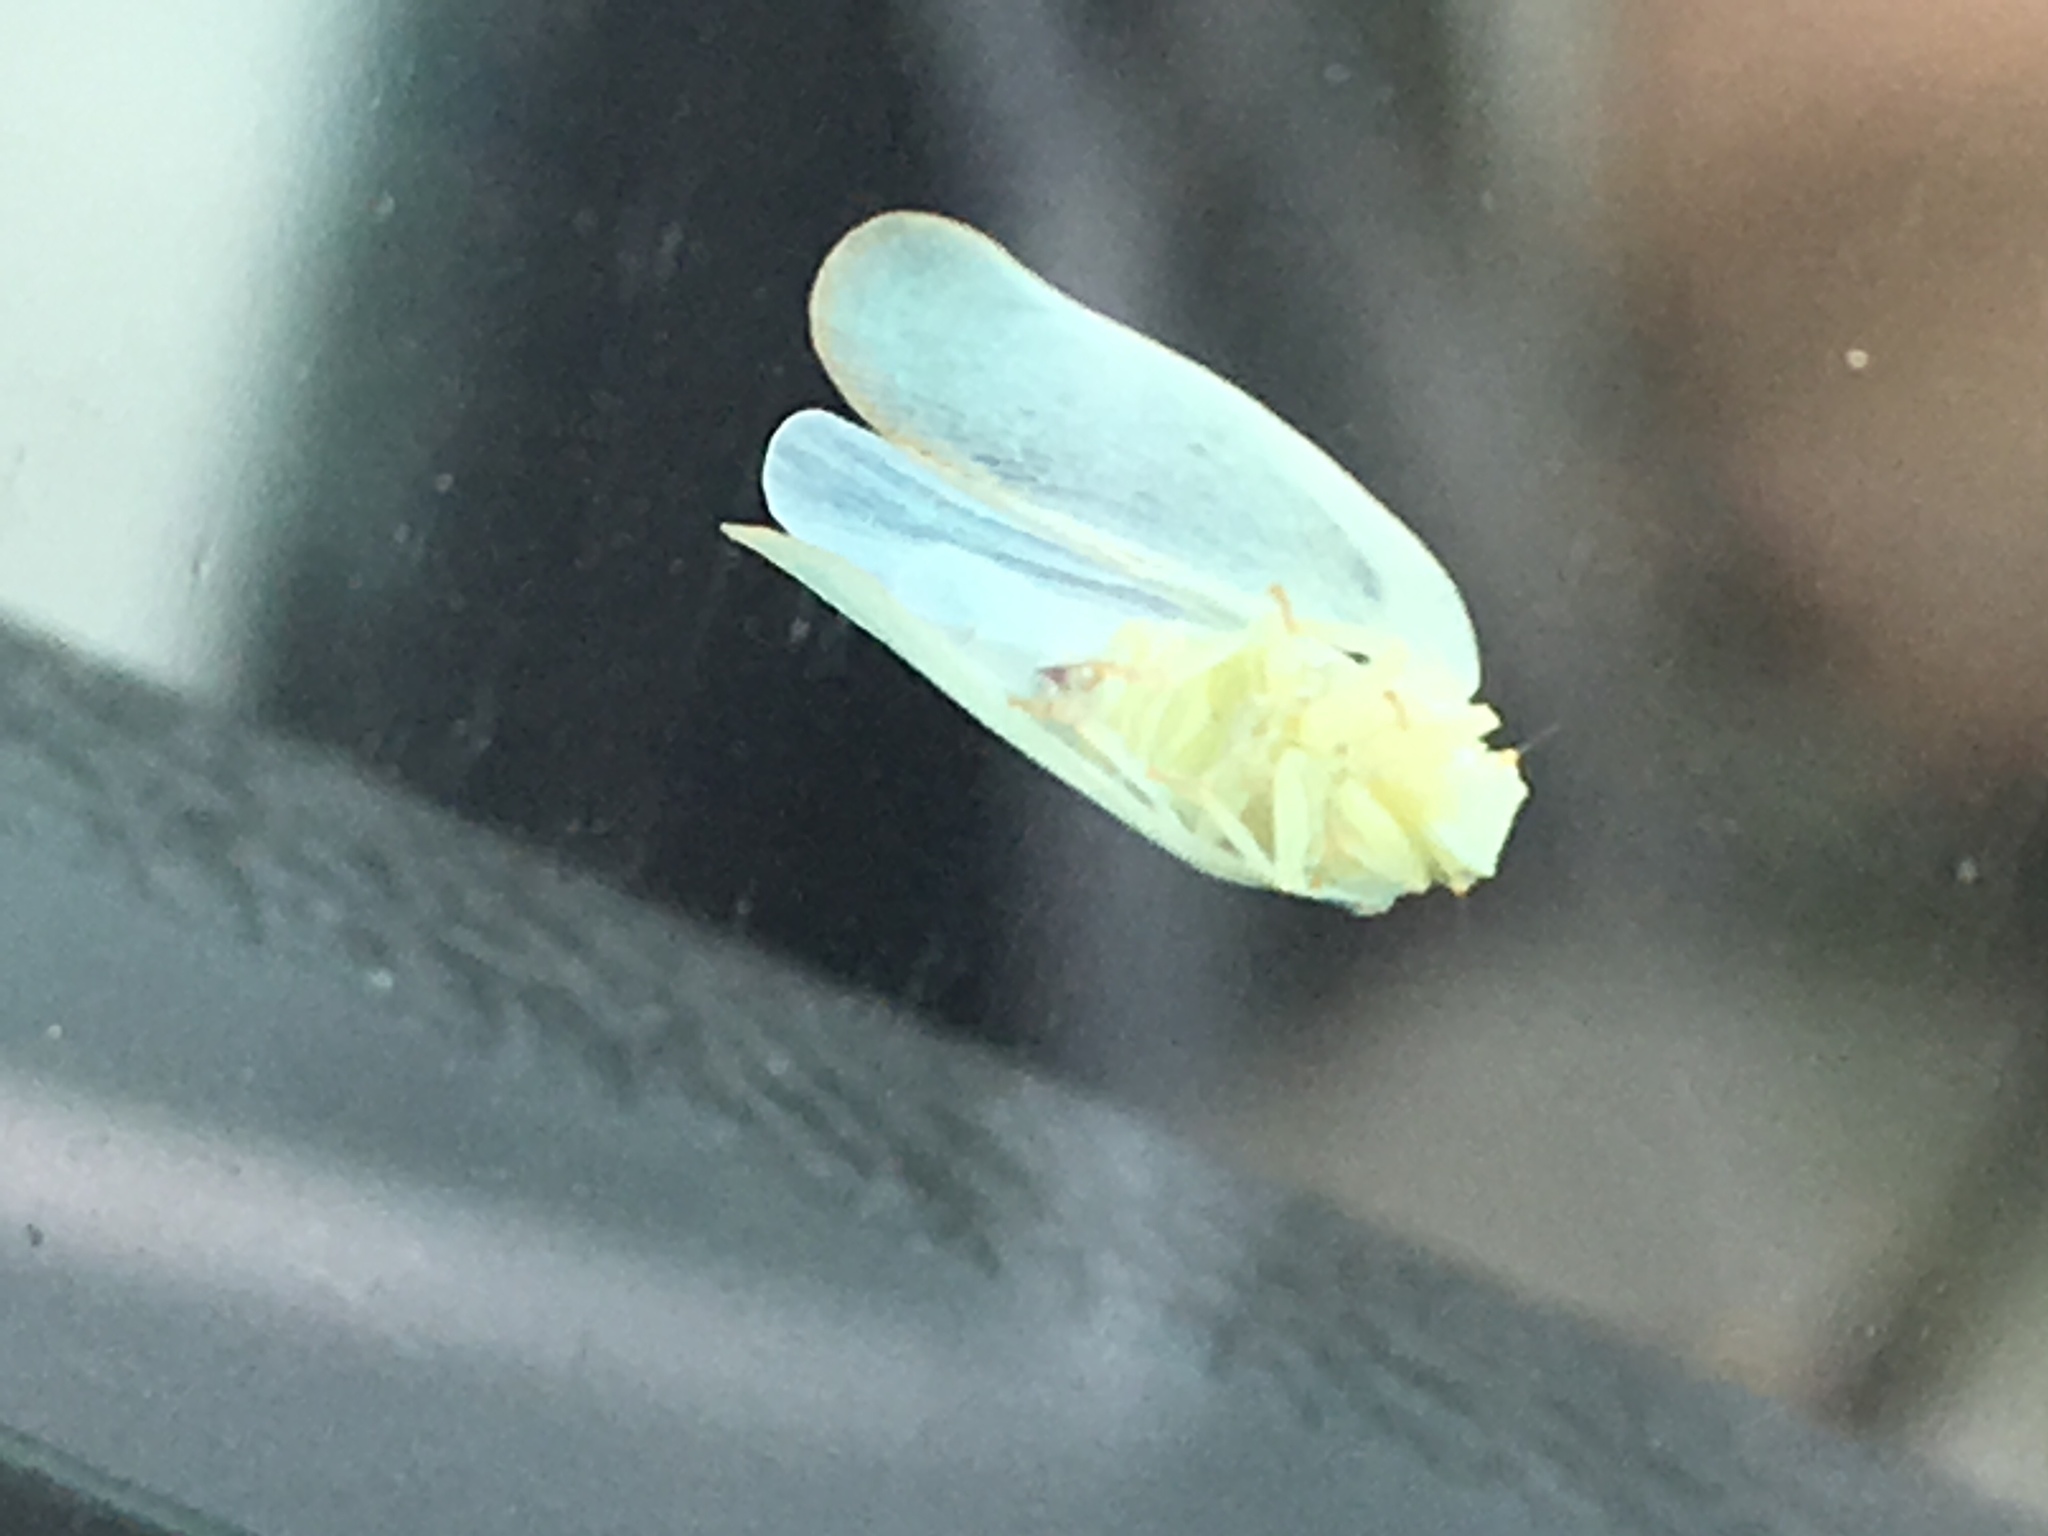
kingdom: Animalia
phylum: Arthropoda
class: Insecta
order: Hemiptera
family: Flatidae
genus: Ormenoides
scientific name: Ormenoides venusta
